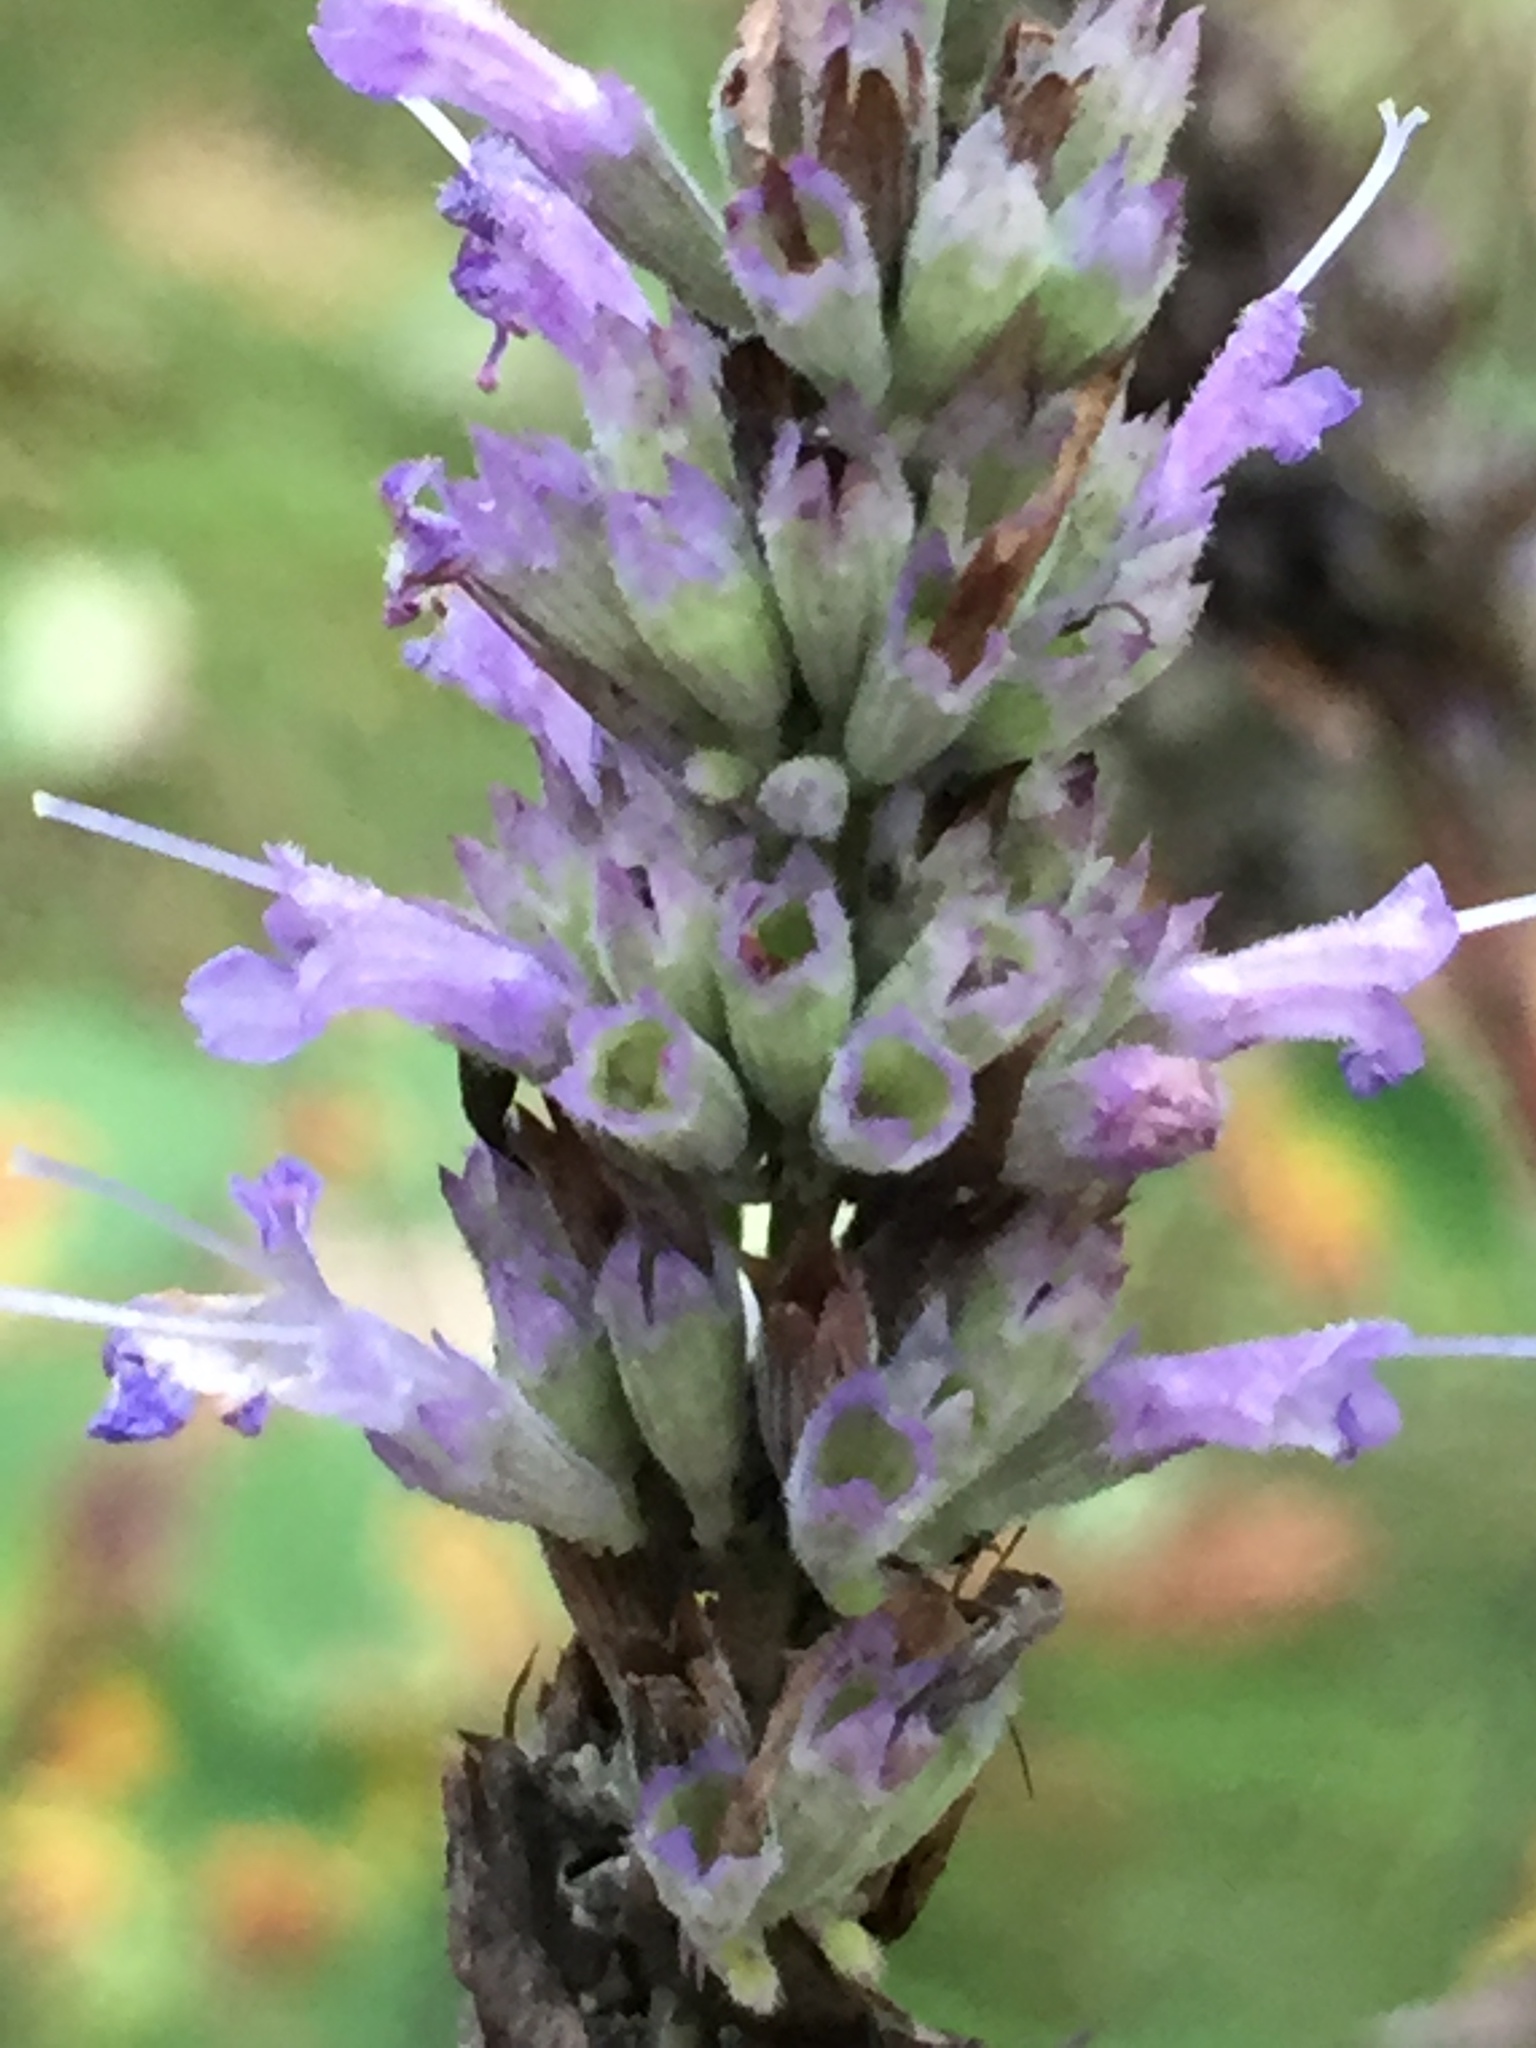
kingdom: Plantae
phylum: Tracheophyta
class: Magnoliopsida
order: Lamiales
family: Lamiaceae
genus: Agastache
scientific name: Agastache foeniculum
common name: Anise hyssop
